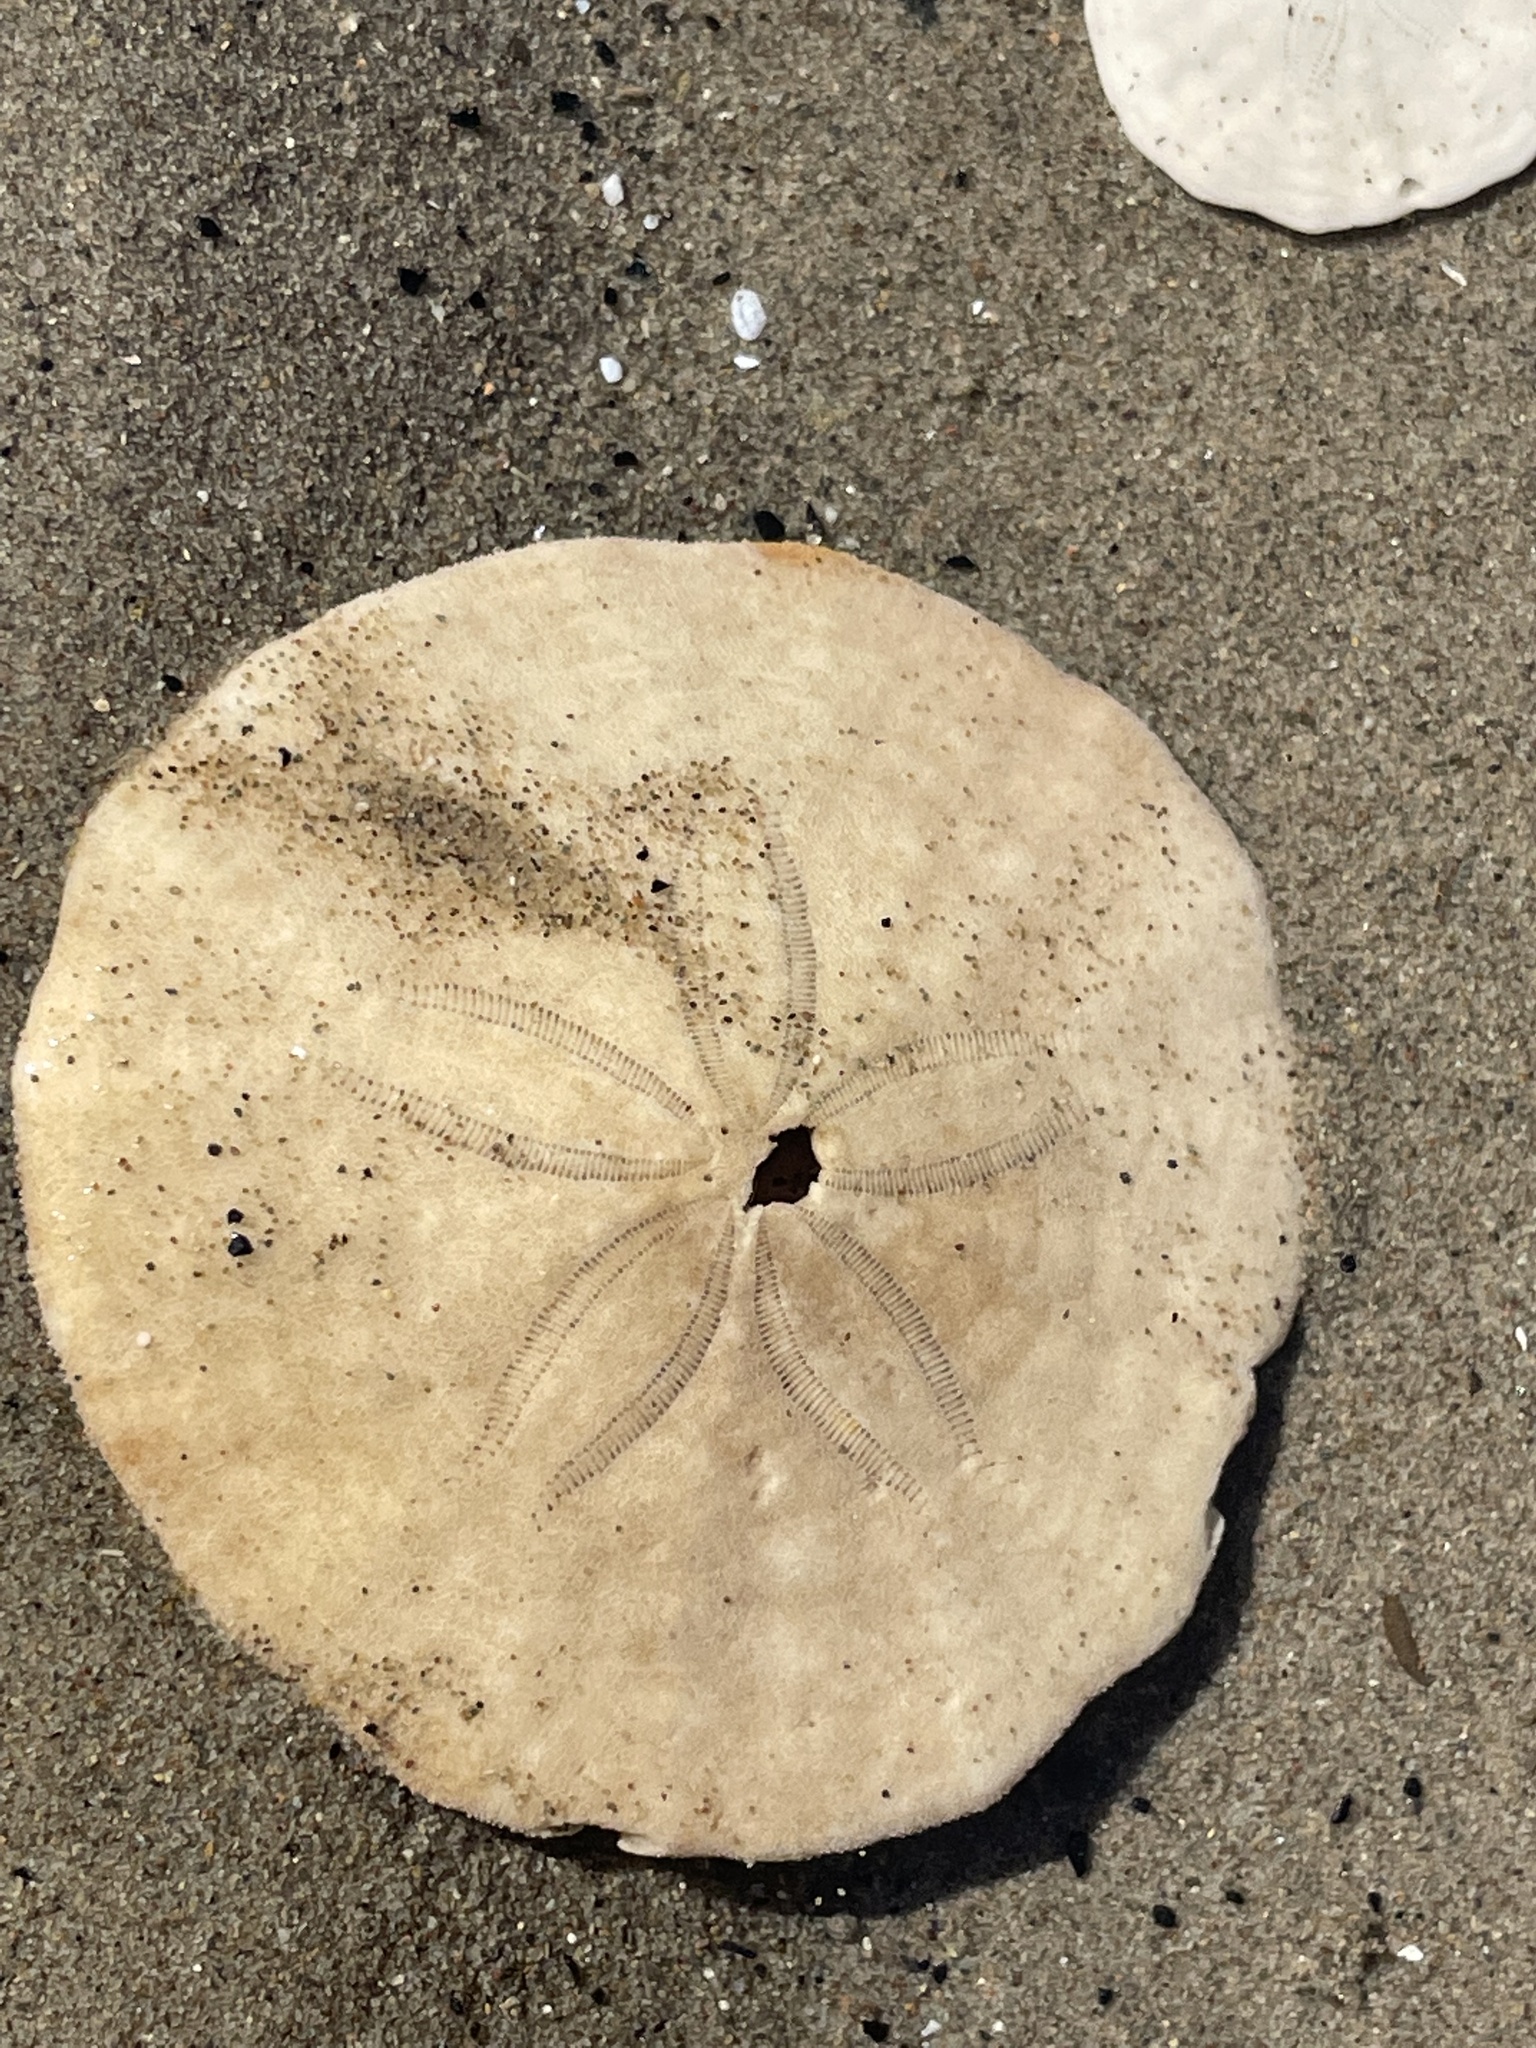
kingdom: Animalia
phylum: Echinodermata
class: Echinoidea
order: Echinolampadacea
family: Echinarachniidae
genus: Echinarachnius
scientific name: Echinarachnius parma
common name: Common sand dollar
